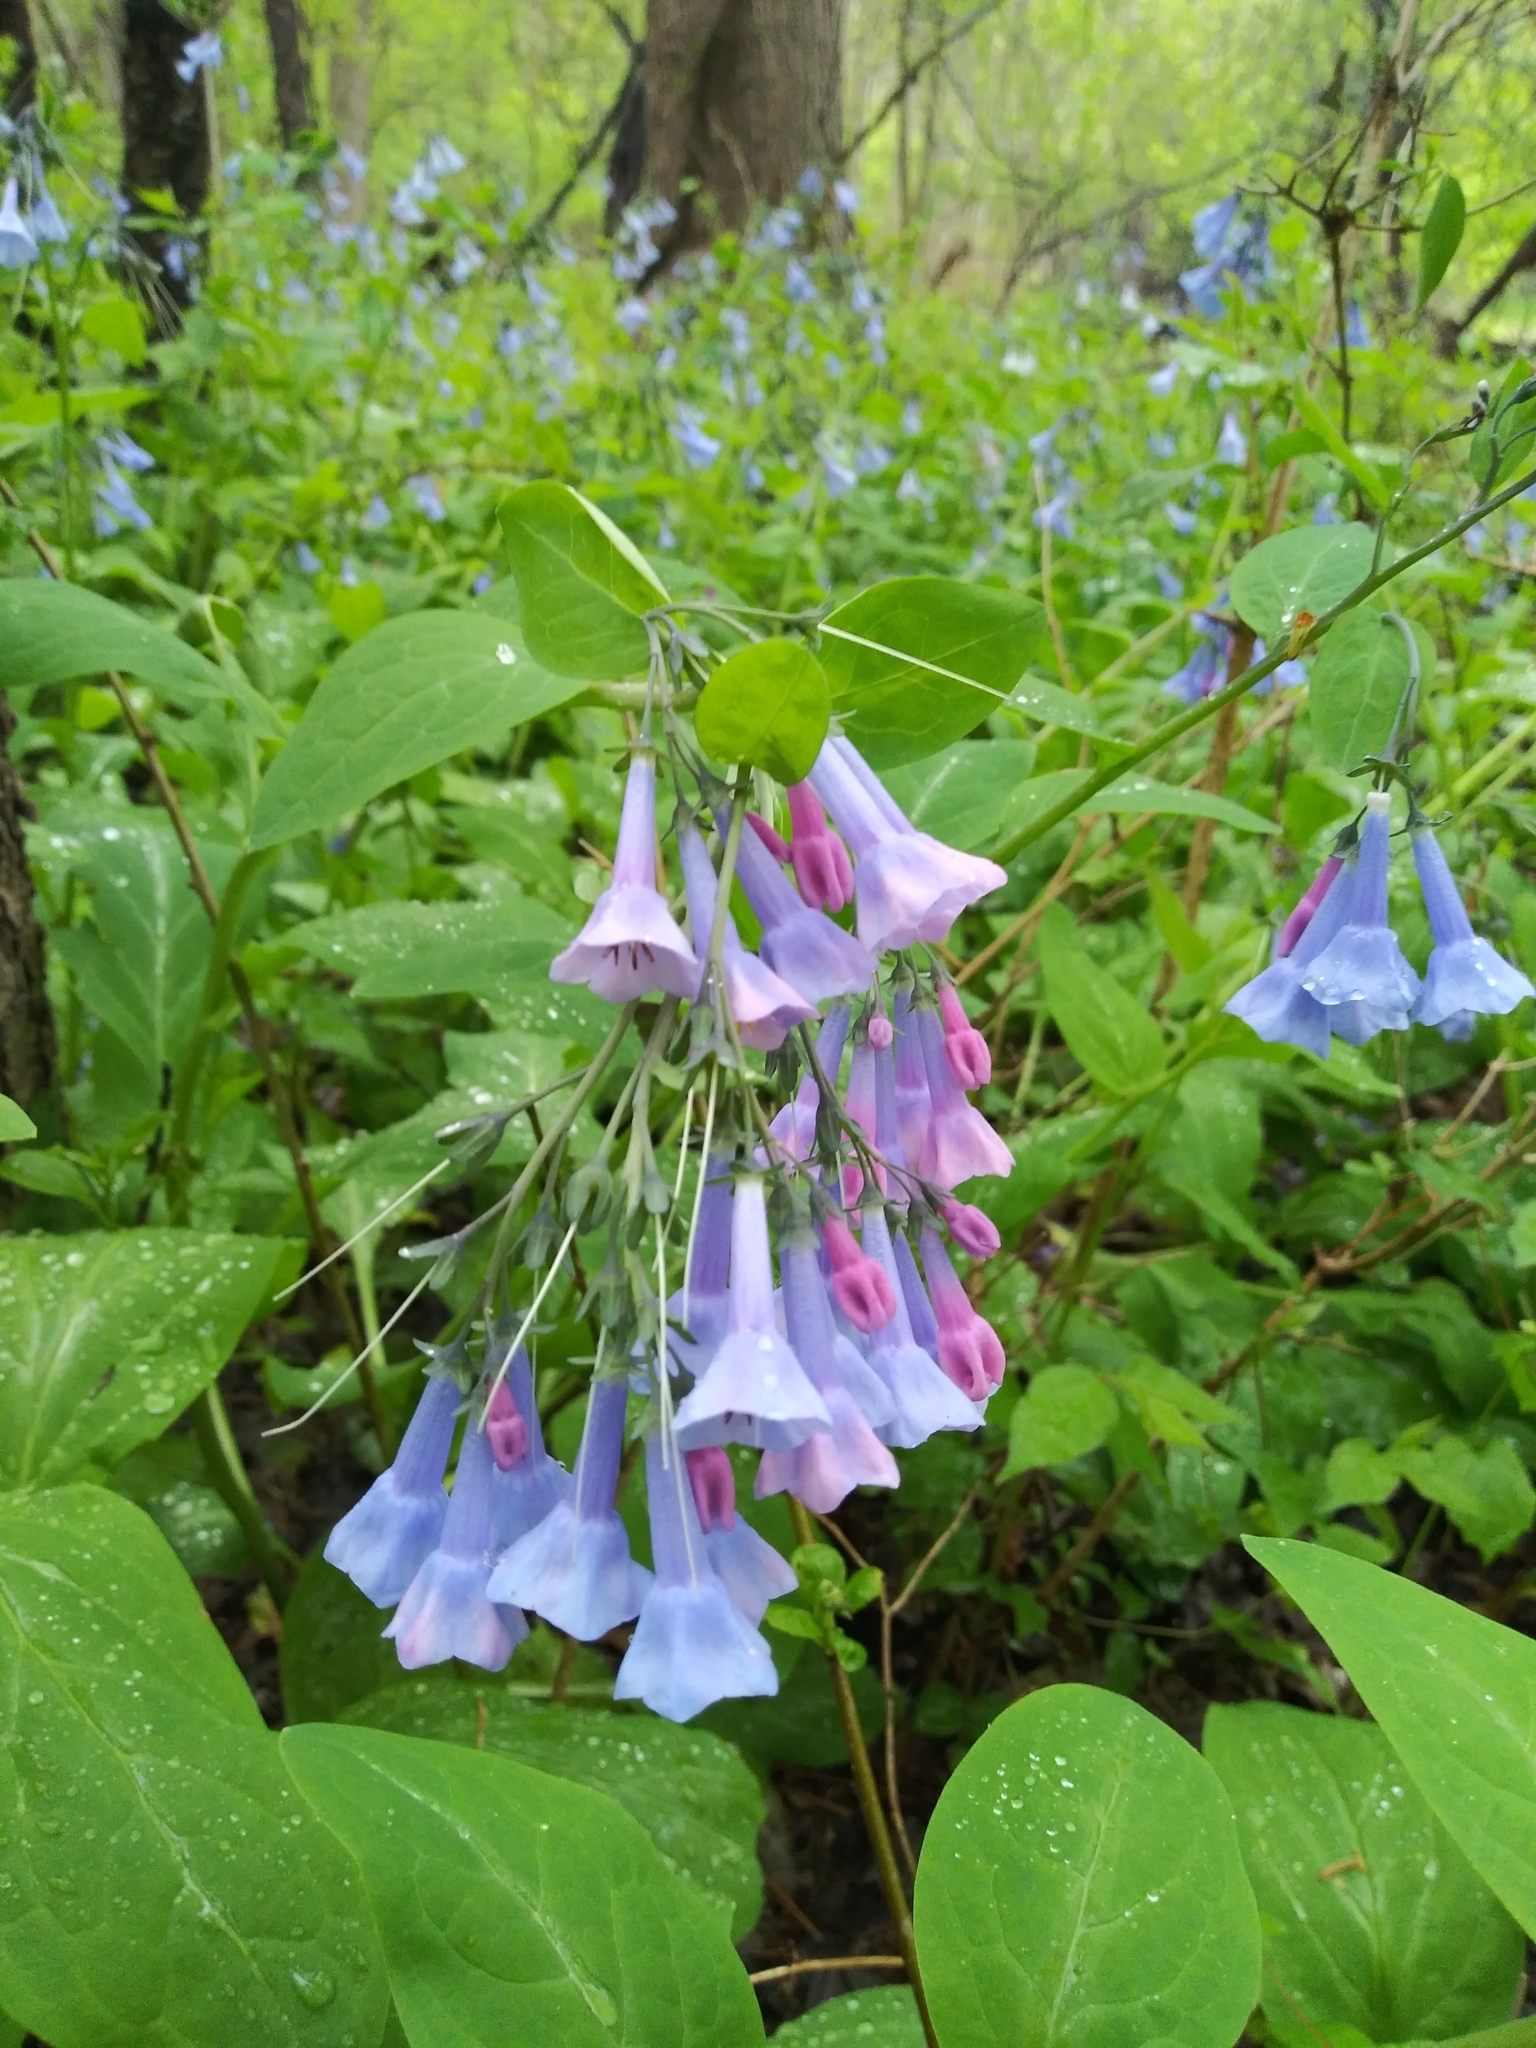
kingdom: Plantae
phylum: Tracheophyta
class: Magnoliopsida
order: Boraginales
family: Boraginaceae
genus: Mertensia
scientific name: Mertensia virginica
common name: Virginia bluebells
